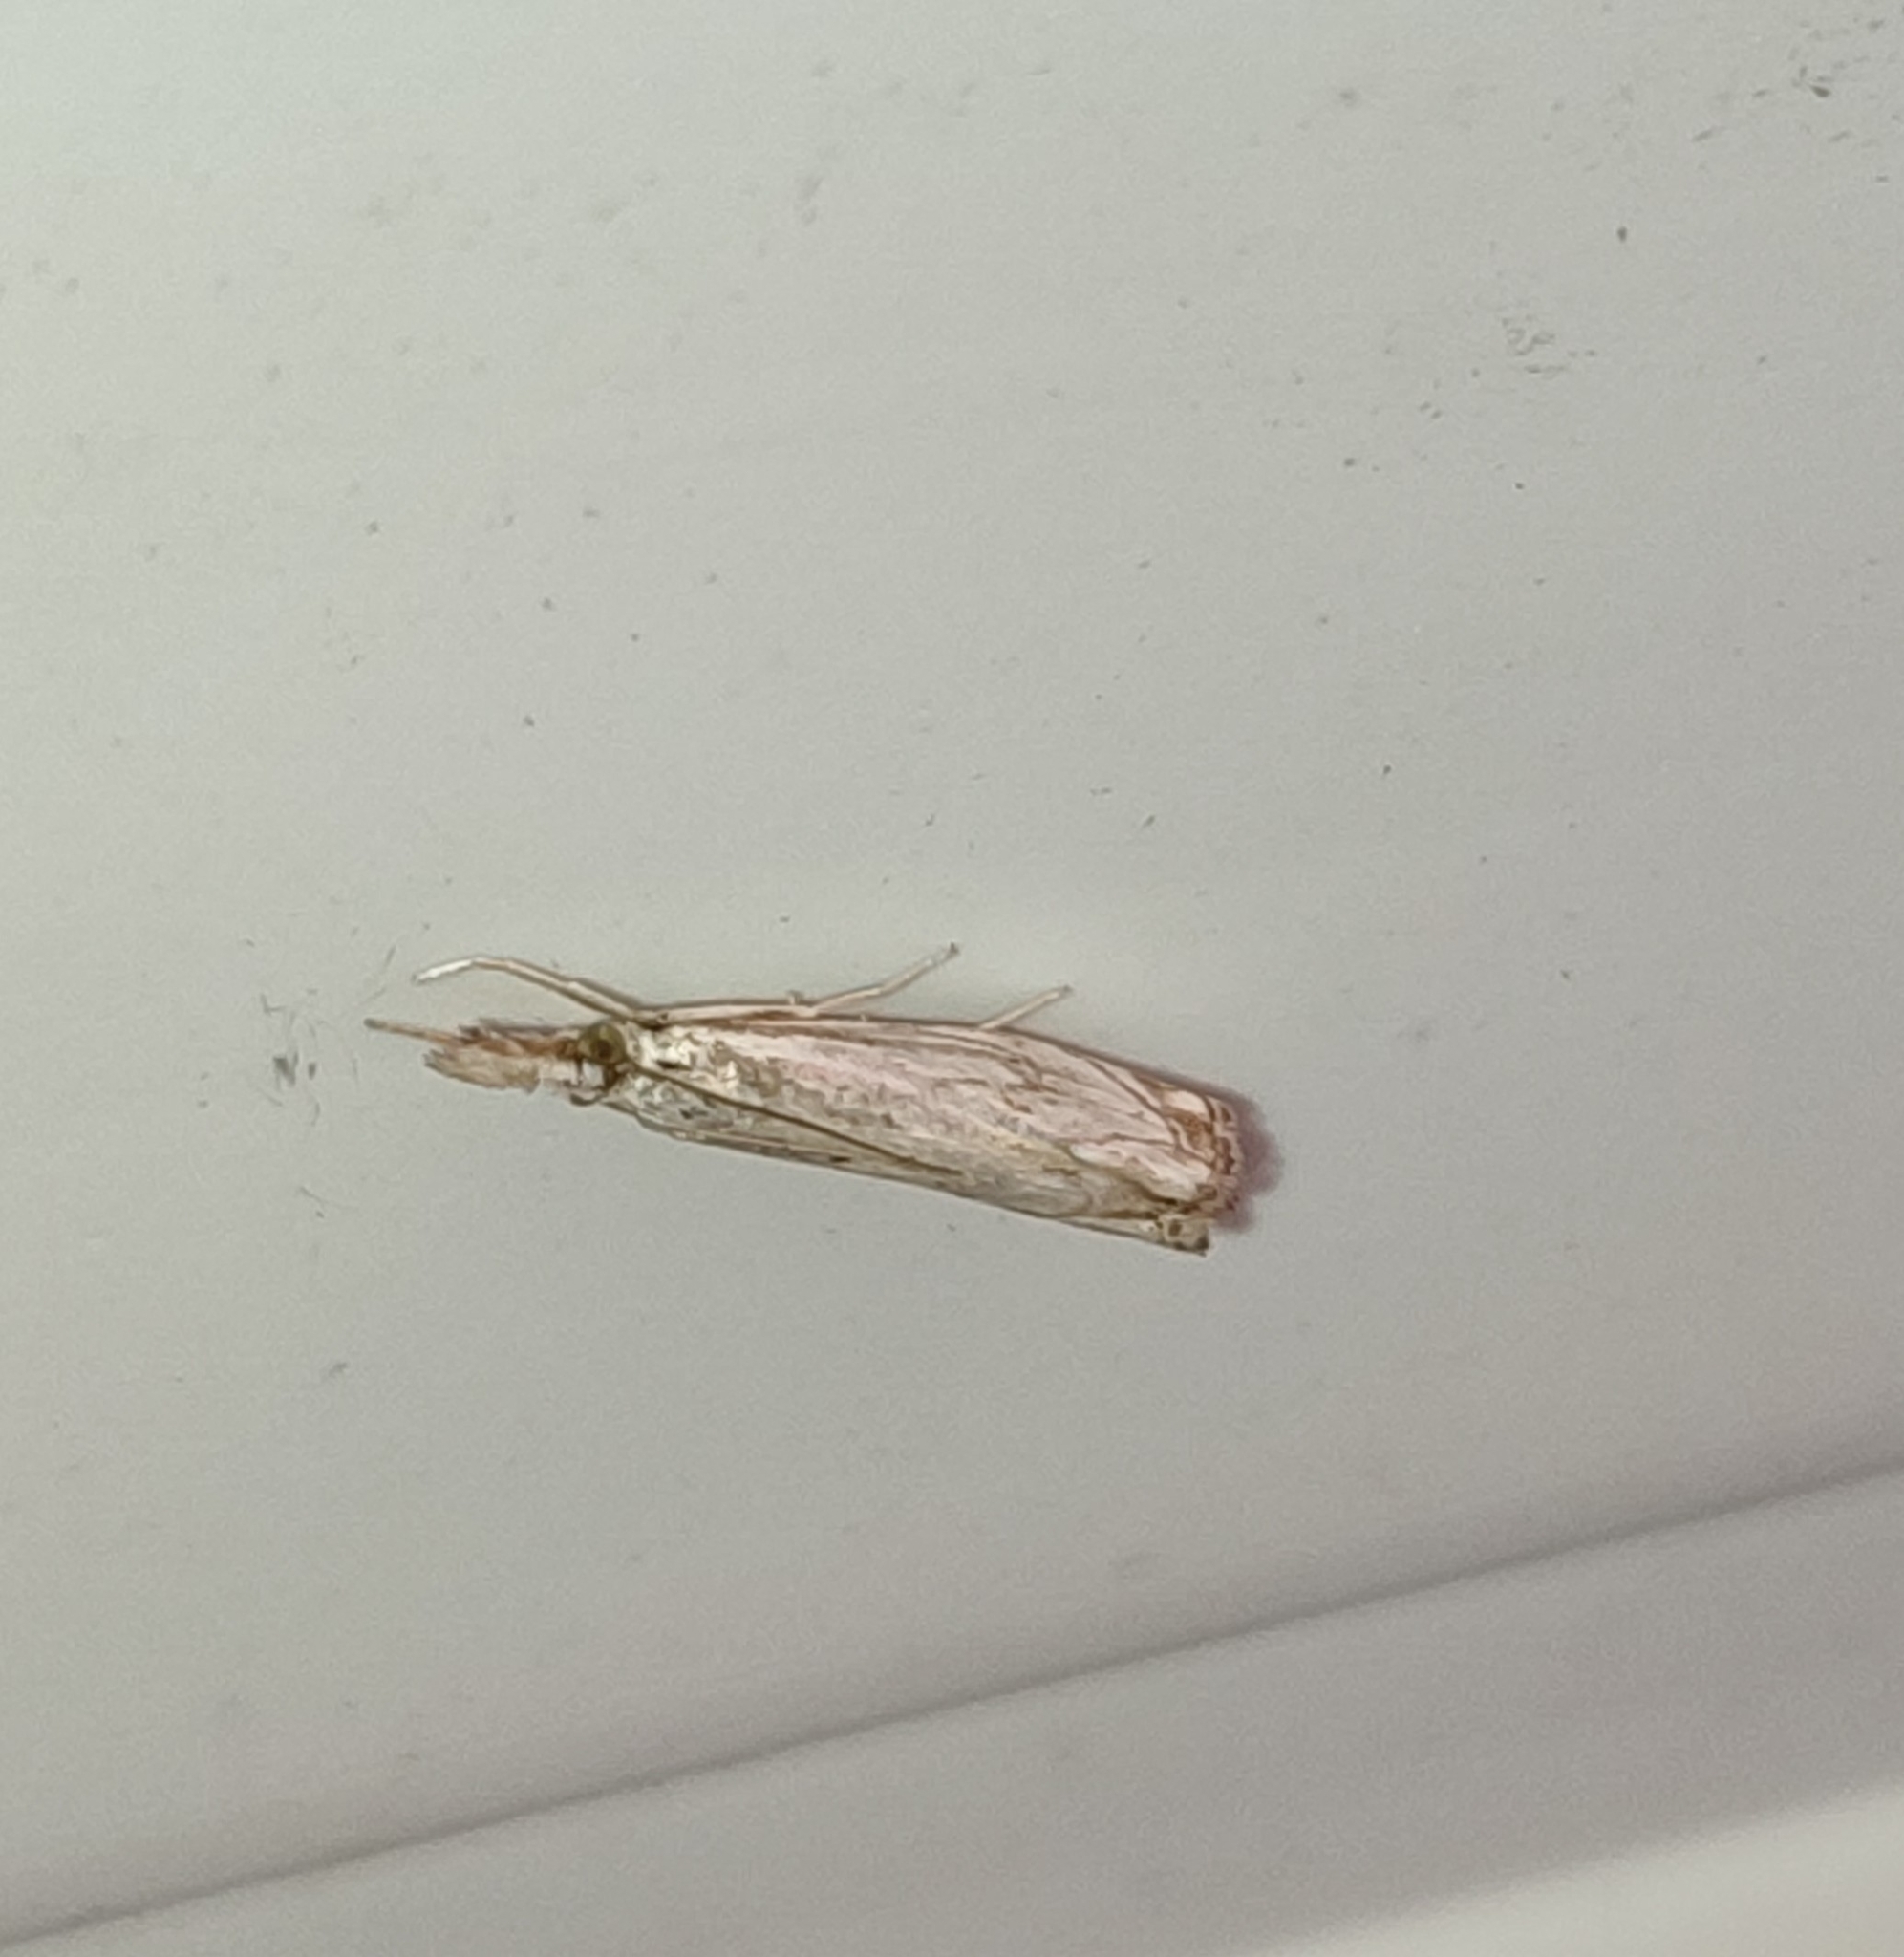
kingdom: Animalia
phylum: Arthropoda
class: Insecta
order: Lepidoptera
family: Crambidae
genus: Catoptria
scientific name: Catoptria falsella
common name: Chequered grass-veneer
